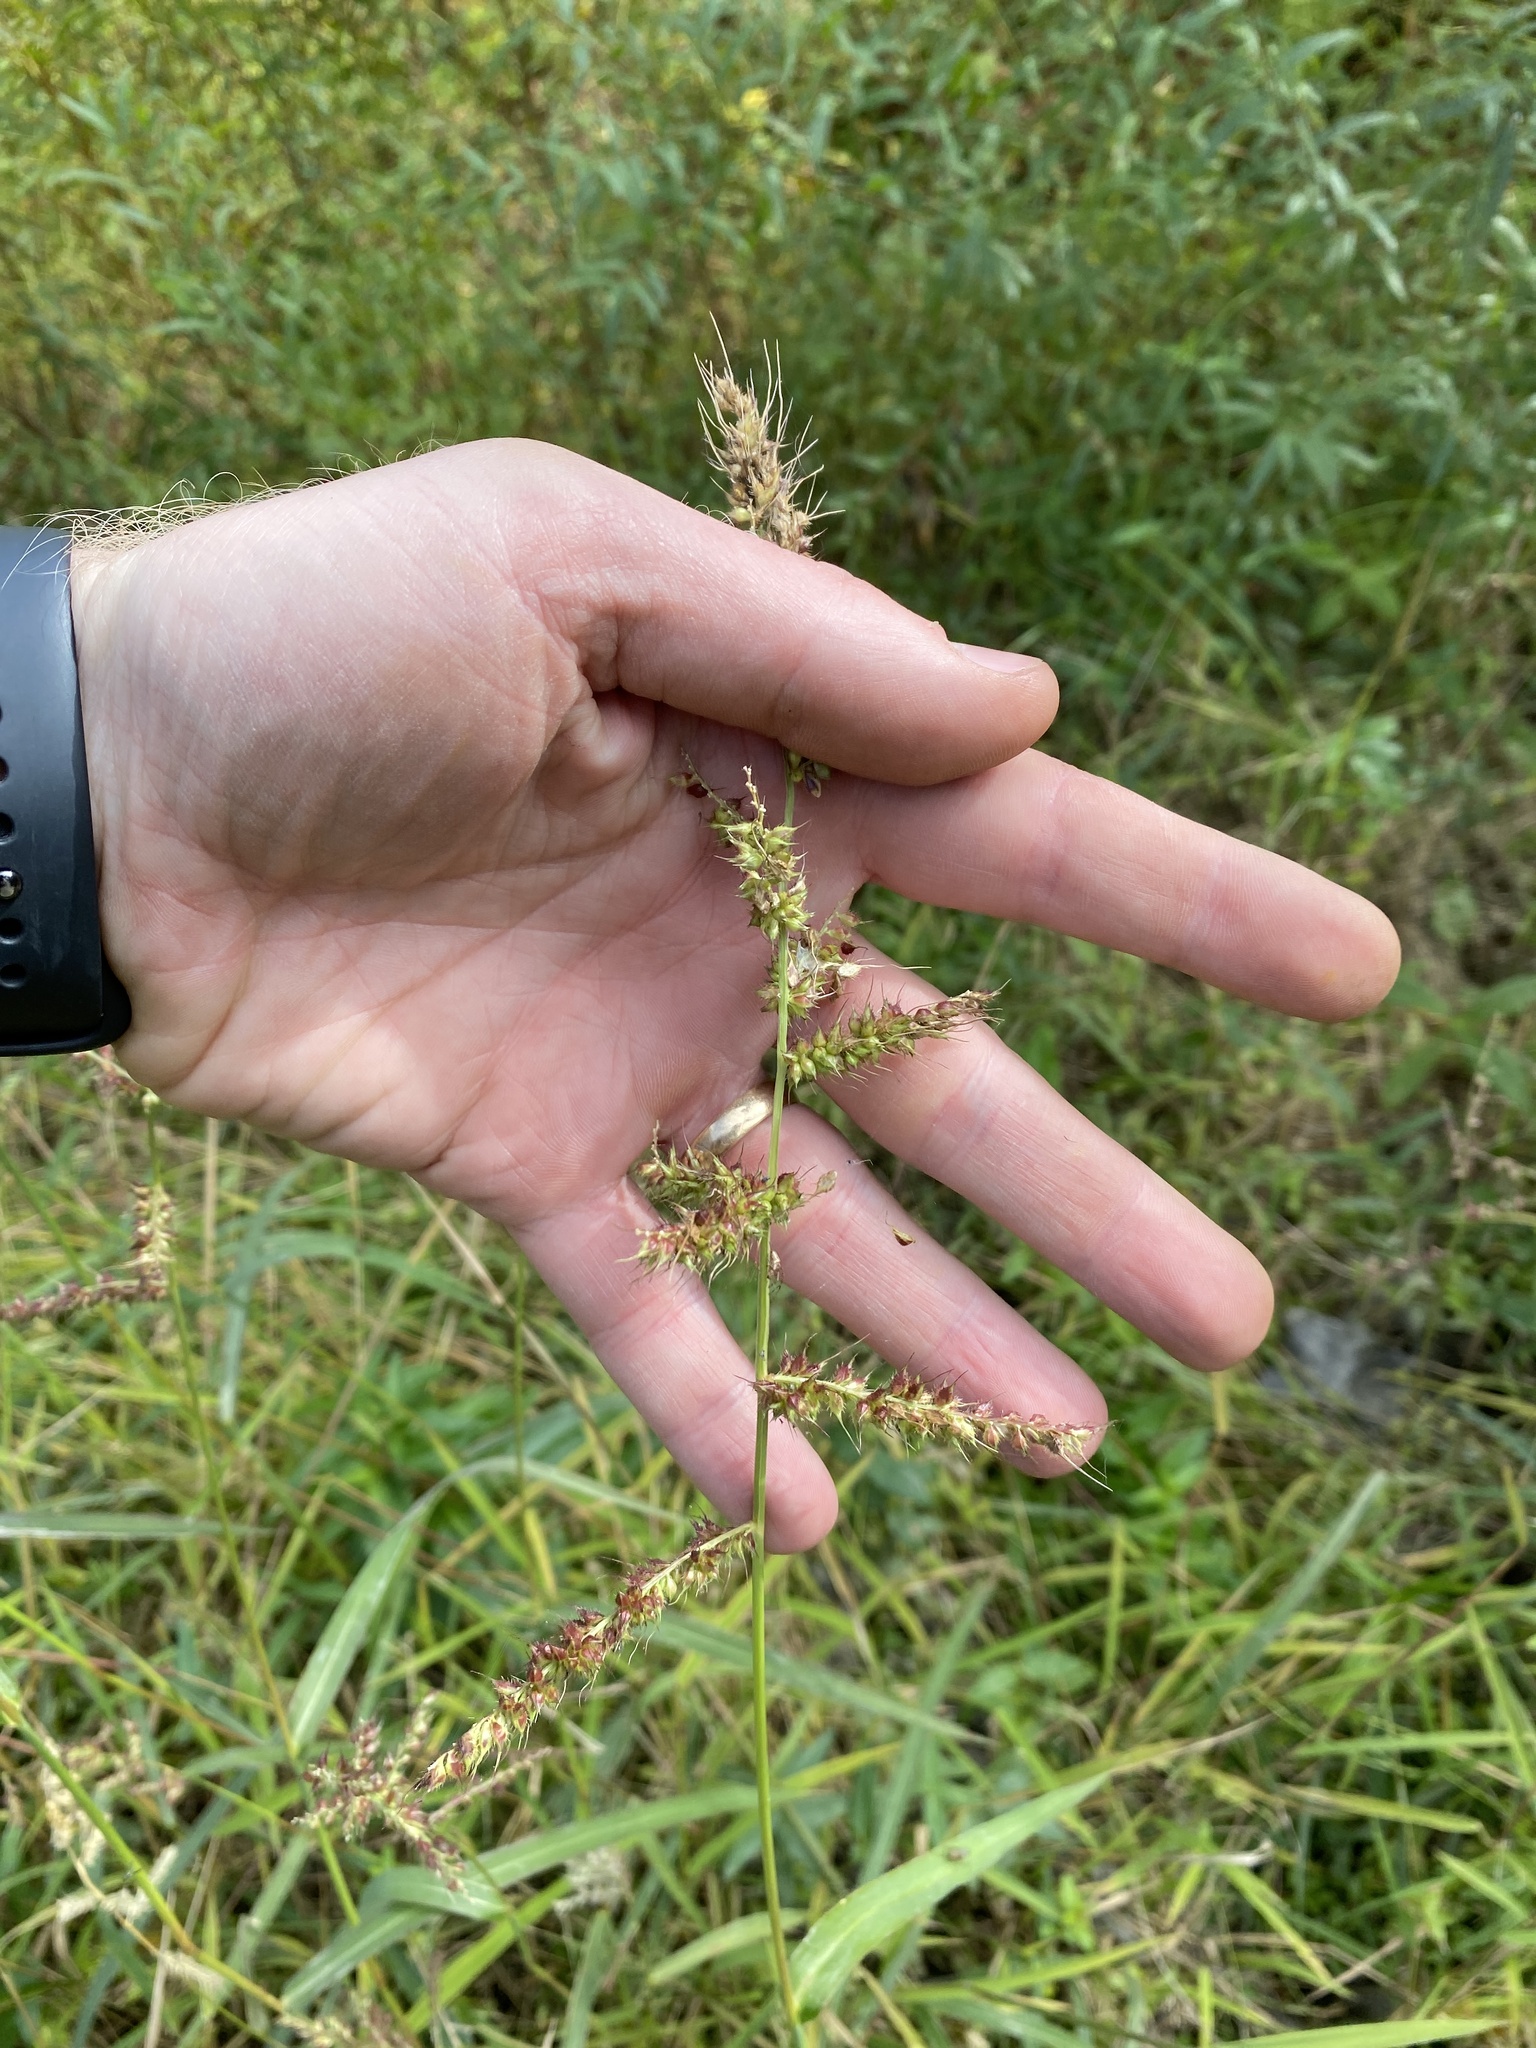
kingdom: Plantae
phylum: Tracheophyta
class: Liliopsida
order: Poales
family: Poaceae
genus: Echinochloa
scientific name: Echinochloa muricata
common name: American barnyard grass
